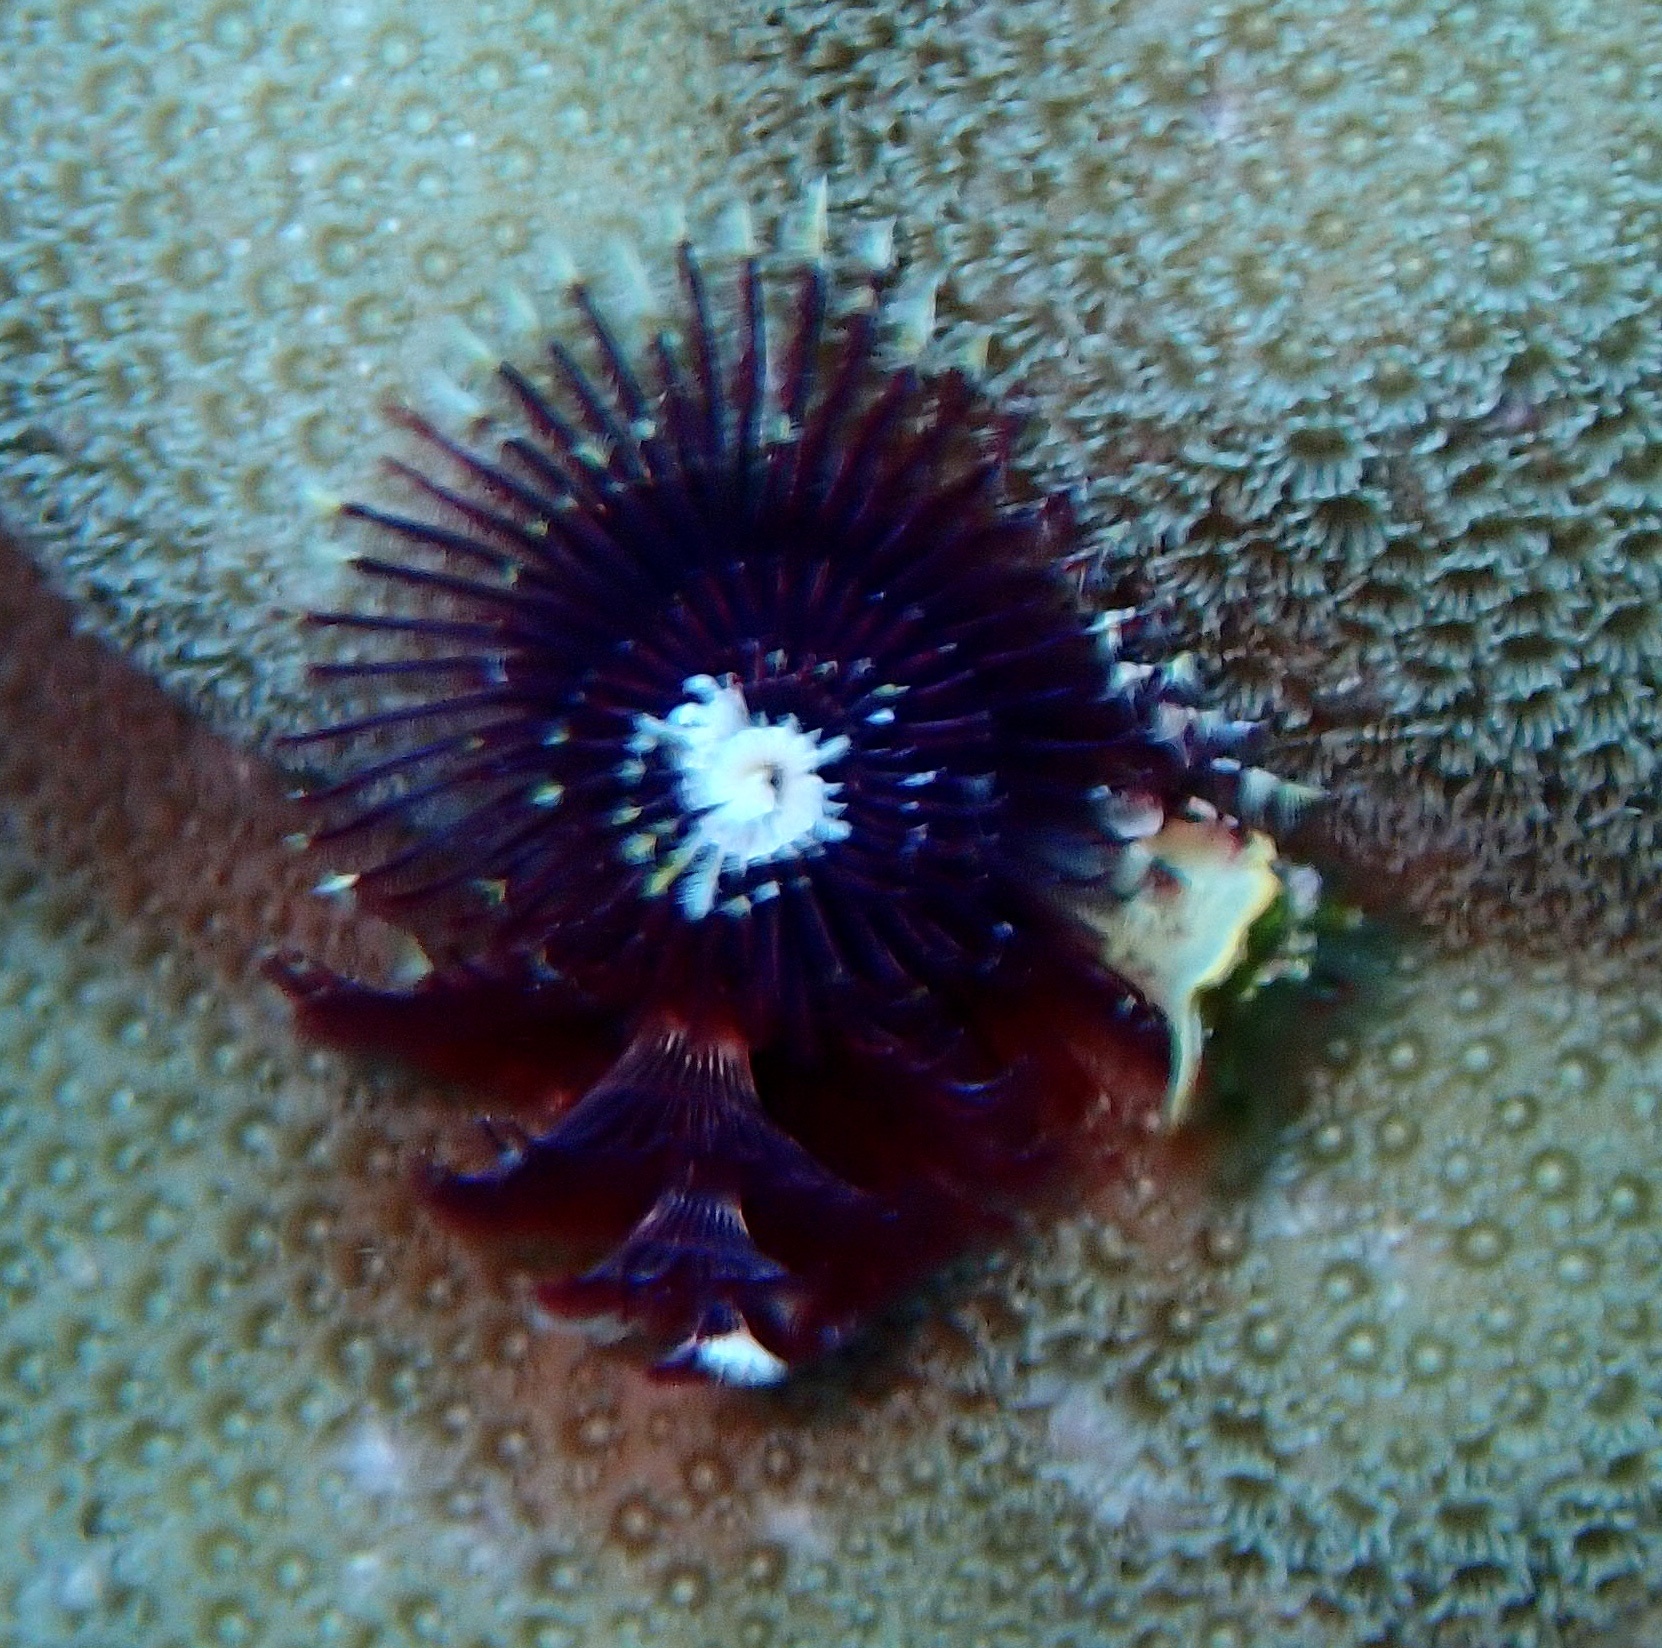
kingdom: Animalia
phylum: Annelida
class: Polychaeta
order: Sabellida
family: Serpulidae
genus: Spirobranchus
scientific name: Spirobranchus
